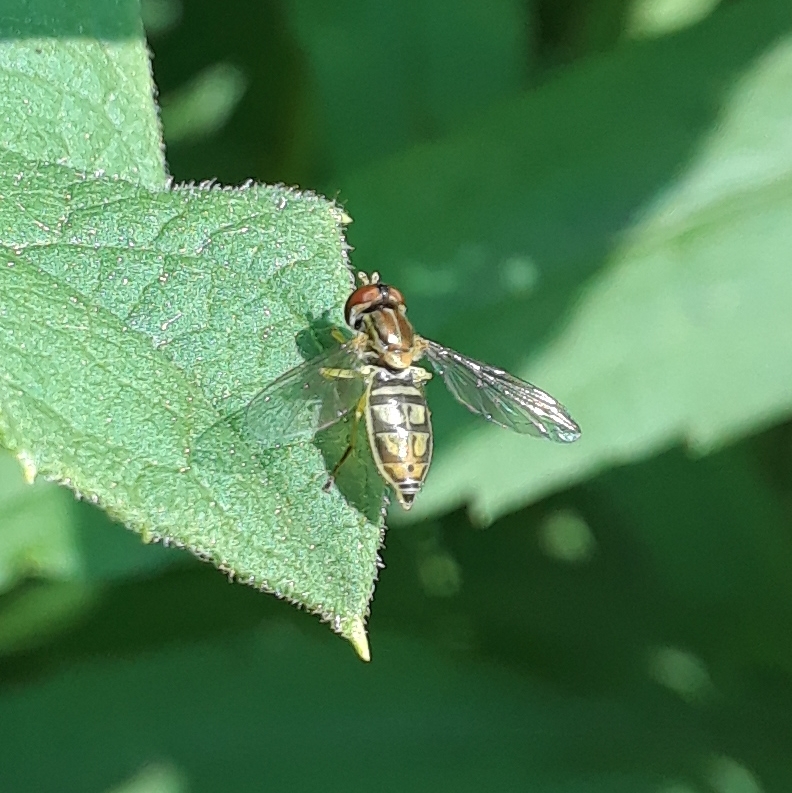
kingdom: Animalia
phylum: Arthropoda
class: Insecta
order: Diptera
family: Syrphidae
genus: Toxomerus
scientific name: Toxomerus marginatus
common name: Syrphid fly
